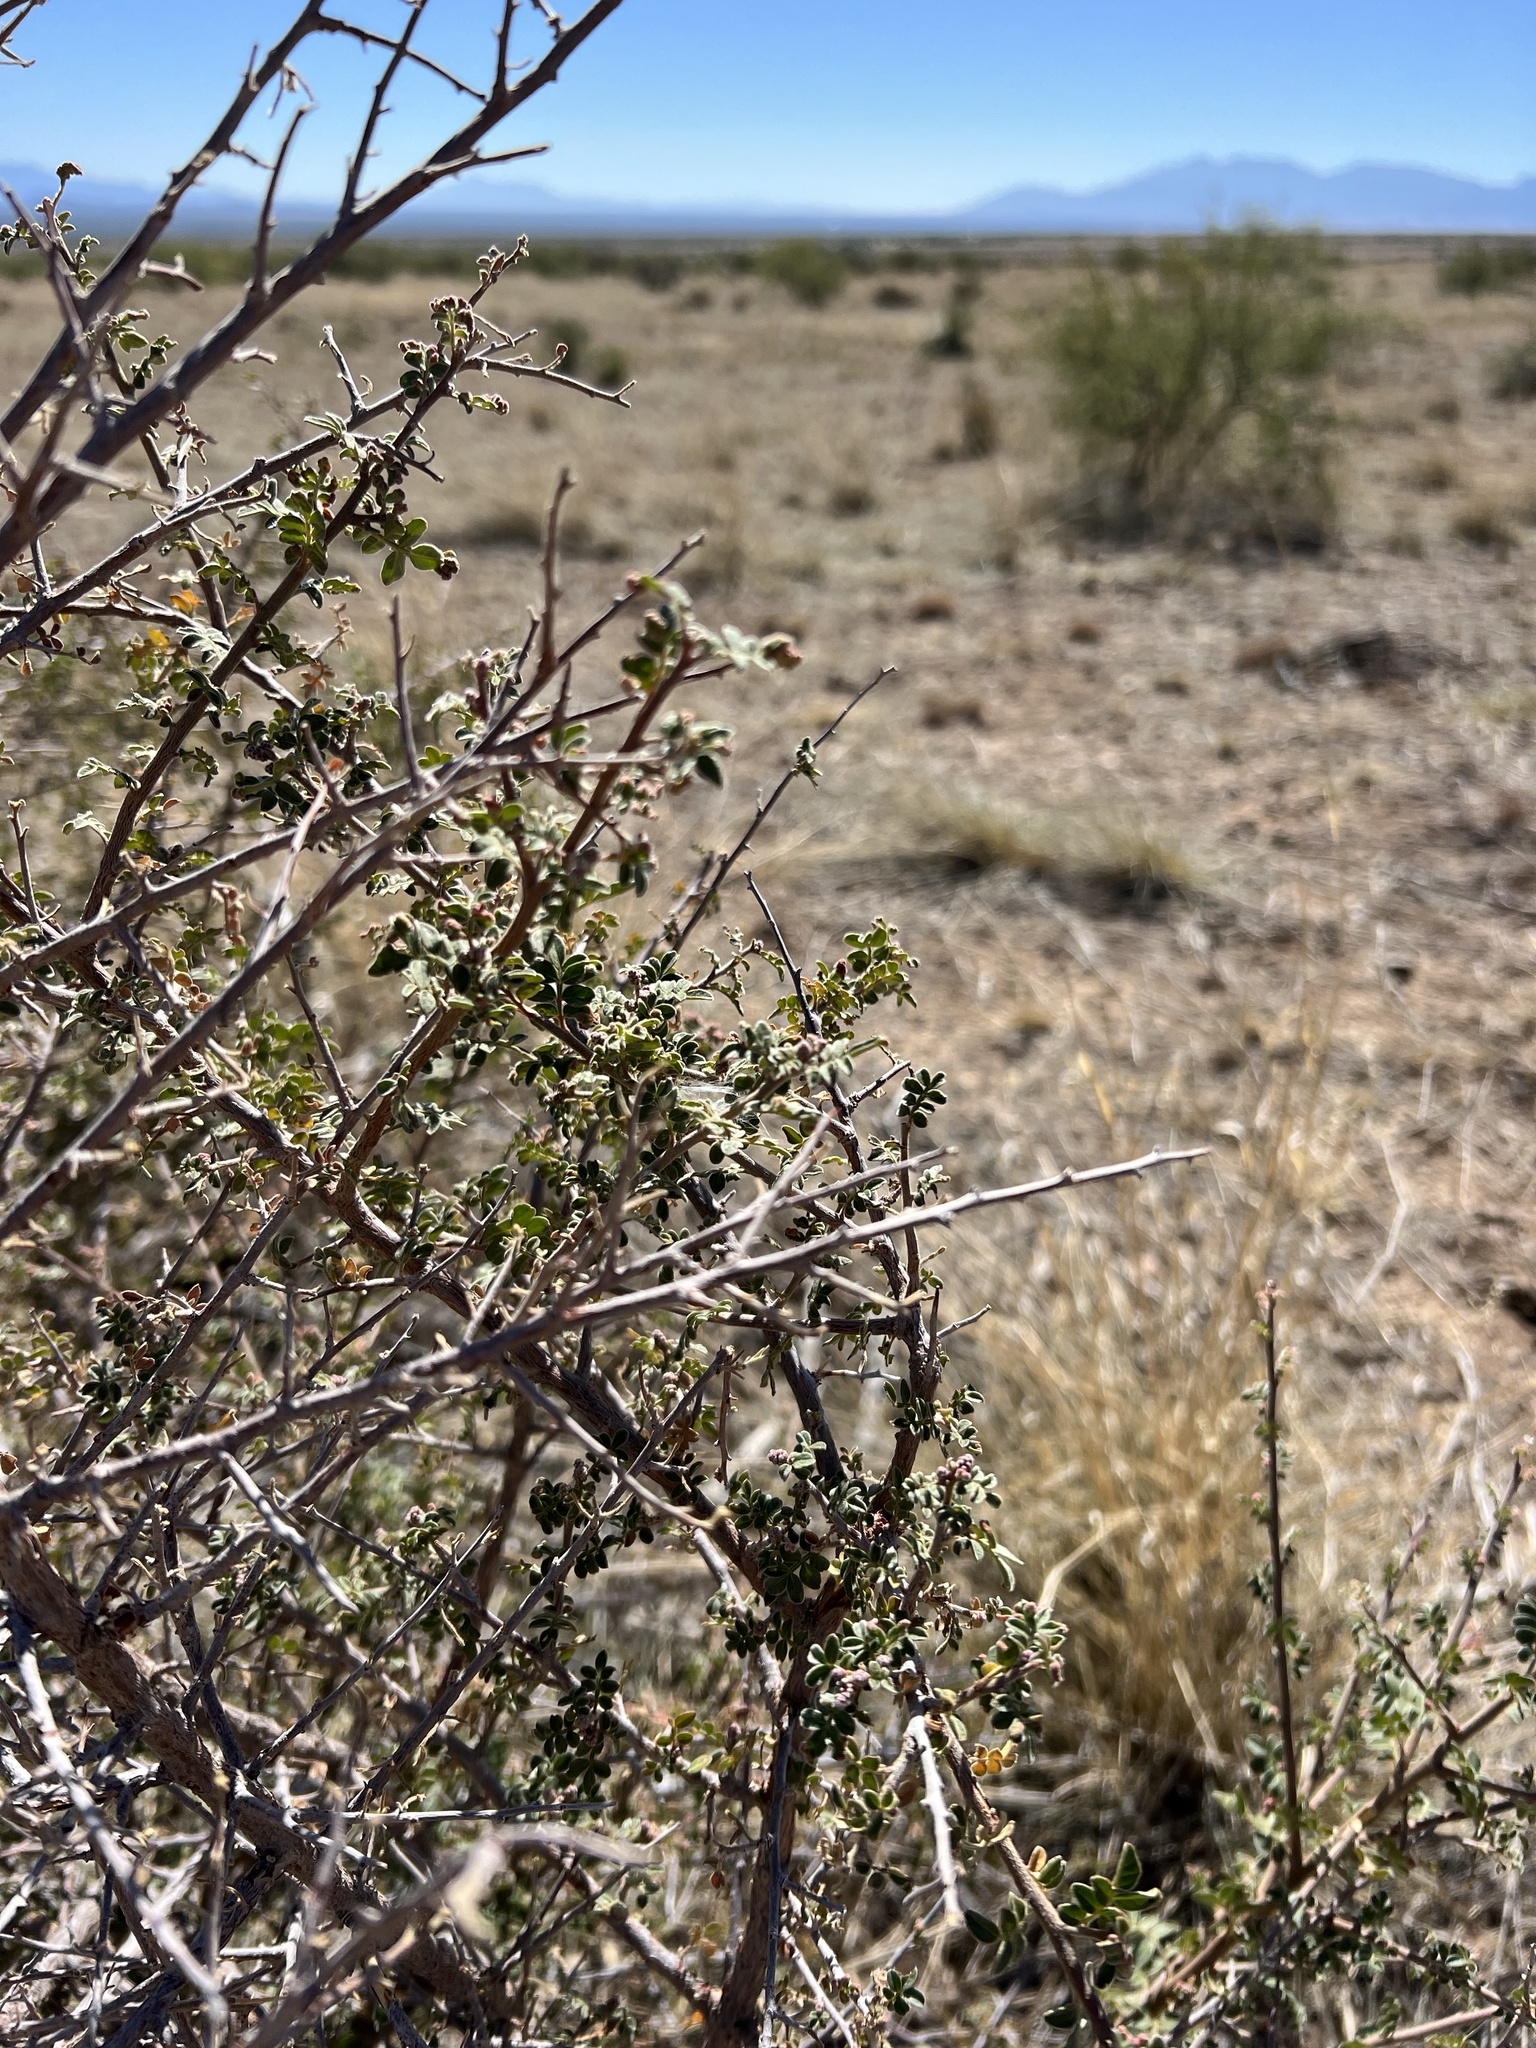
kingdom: Plantae
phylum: Tracheophyta
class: Magnoliopsida
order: Sapindales
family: Anacardiaceae
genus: Rhus
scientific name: Rhus microphylla
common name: Desert sumac
